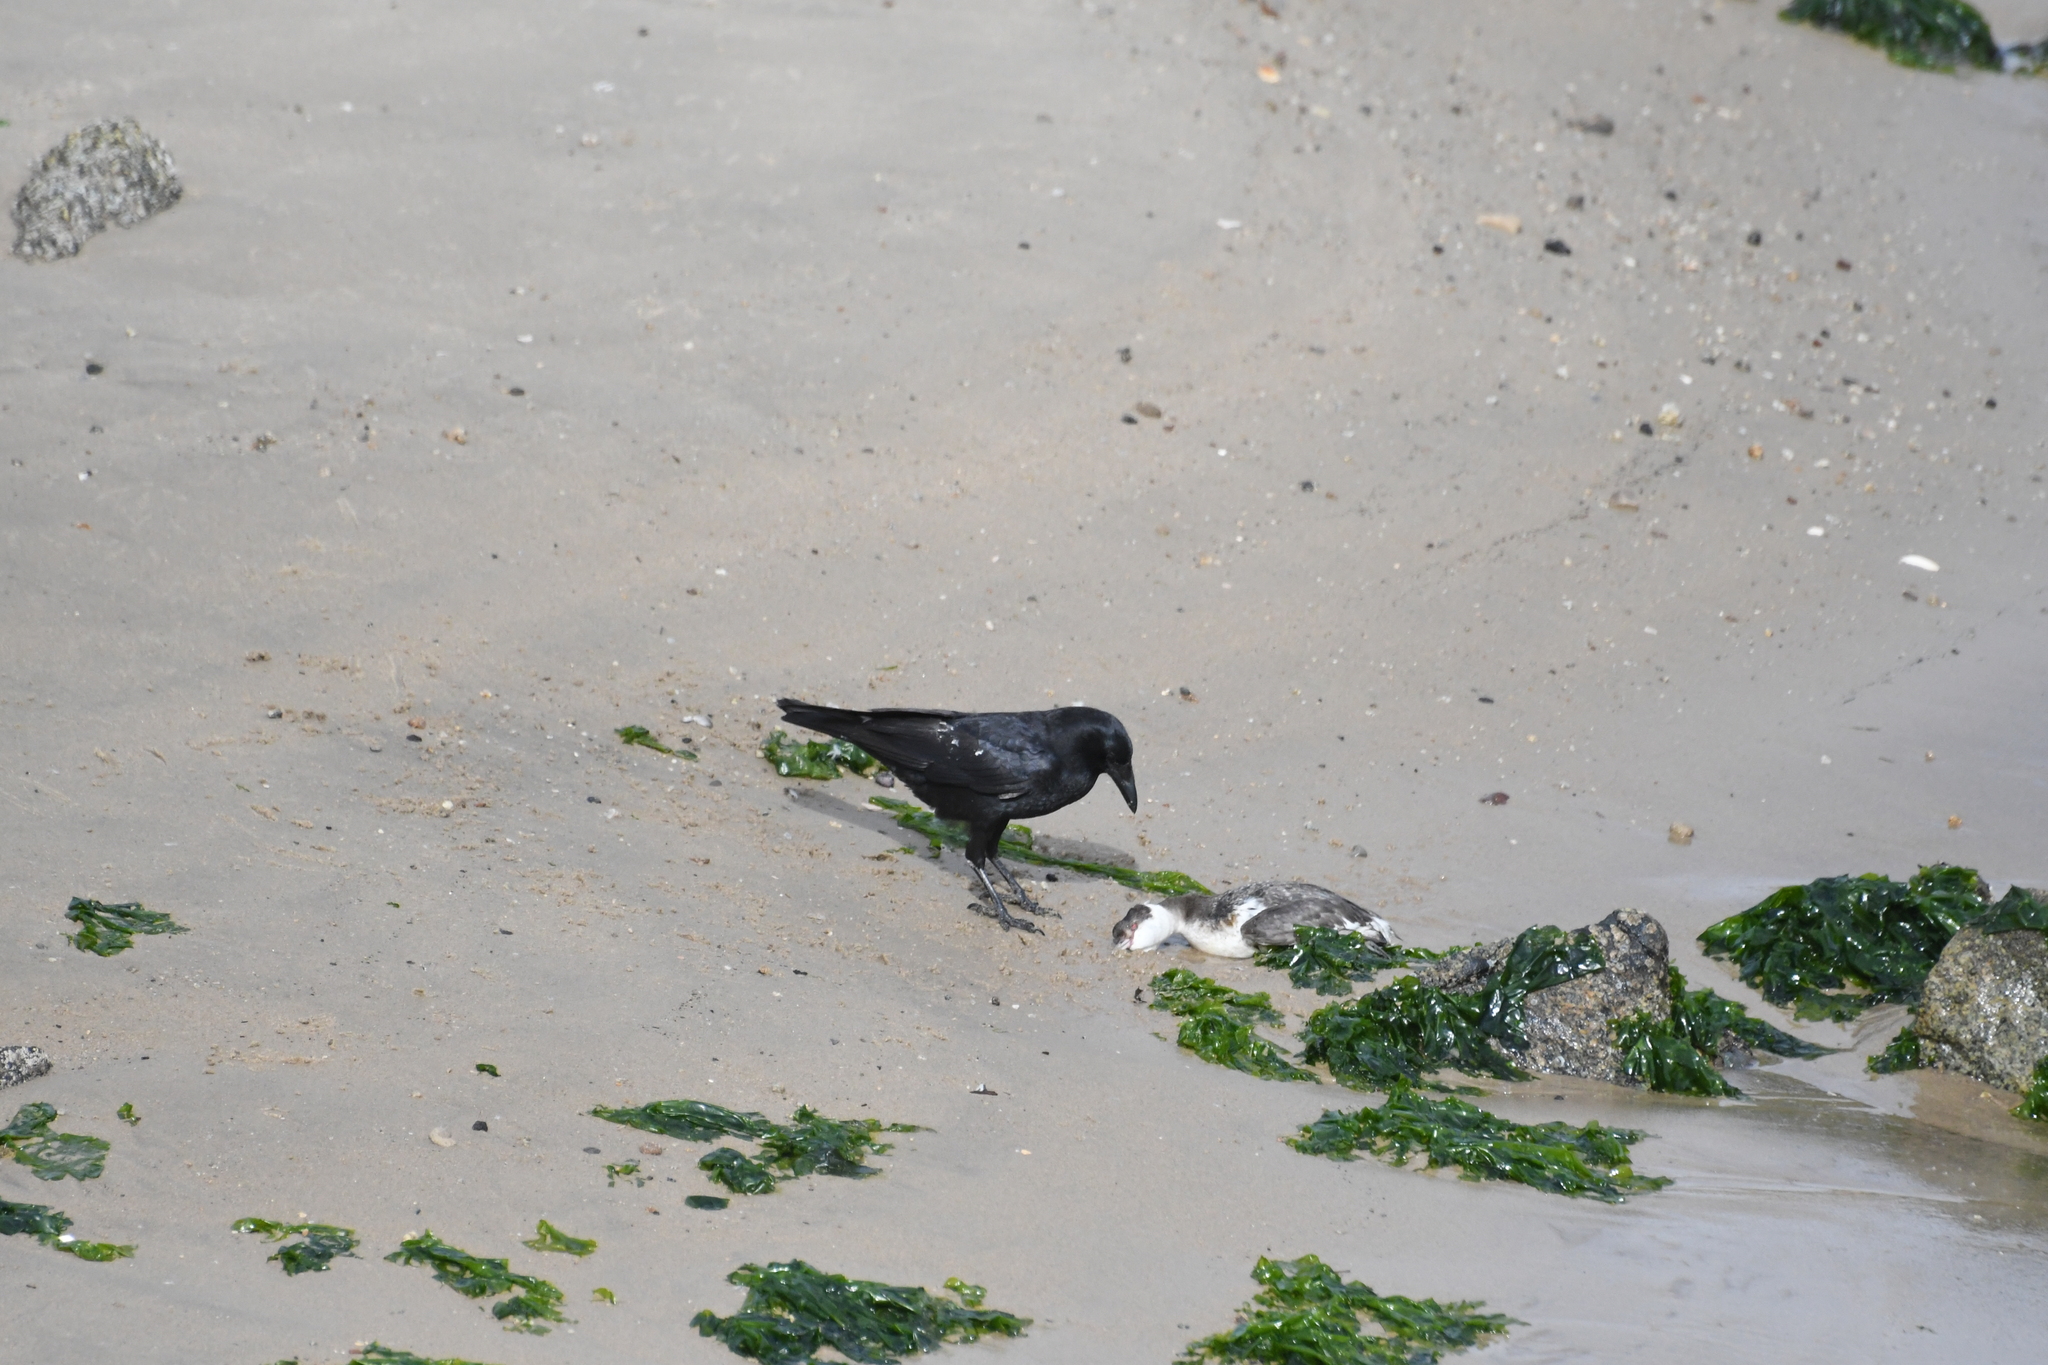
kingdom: Animalia
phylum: Chordata
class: Aves
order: Passeriformes
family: Corvidae
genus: Corvus
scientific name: Corvus brachyrhynchos
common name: American crow
